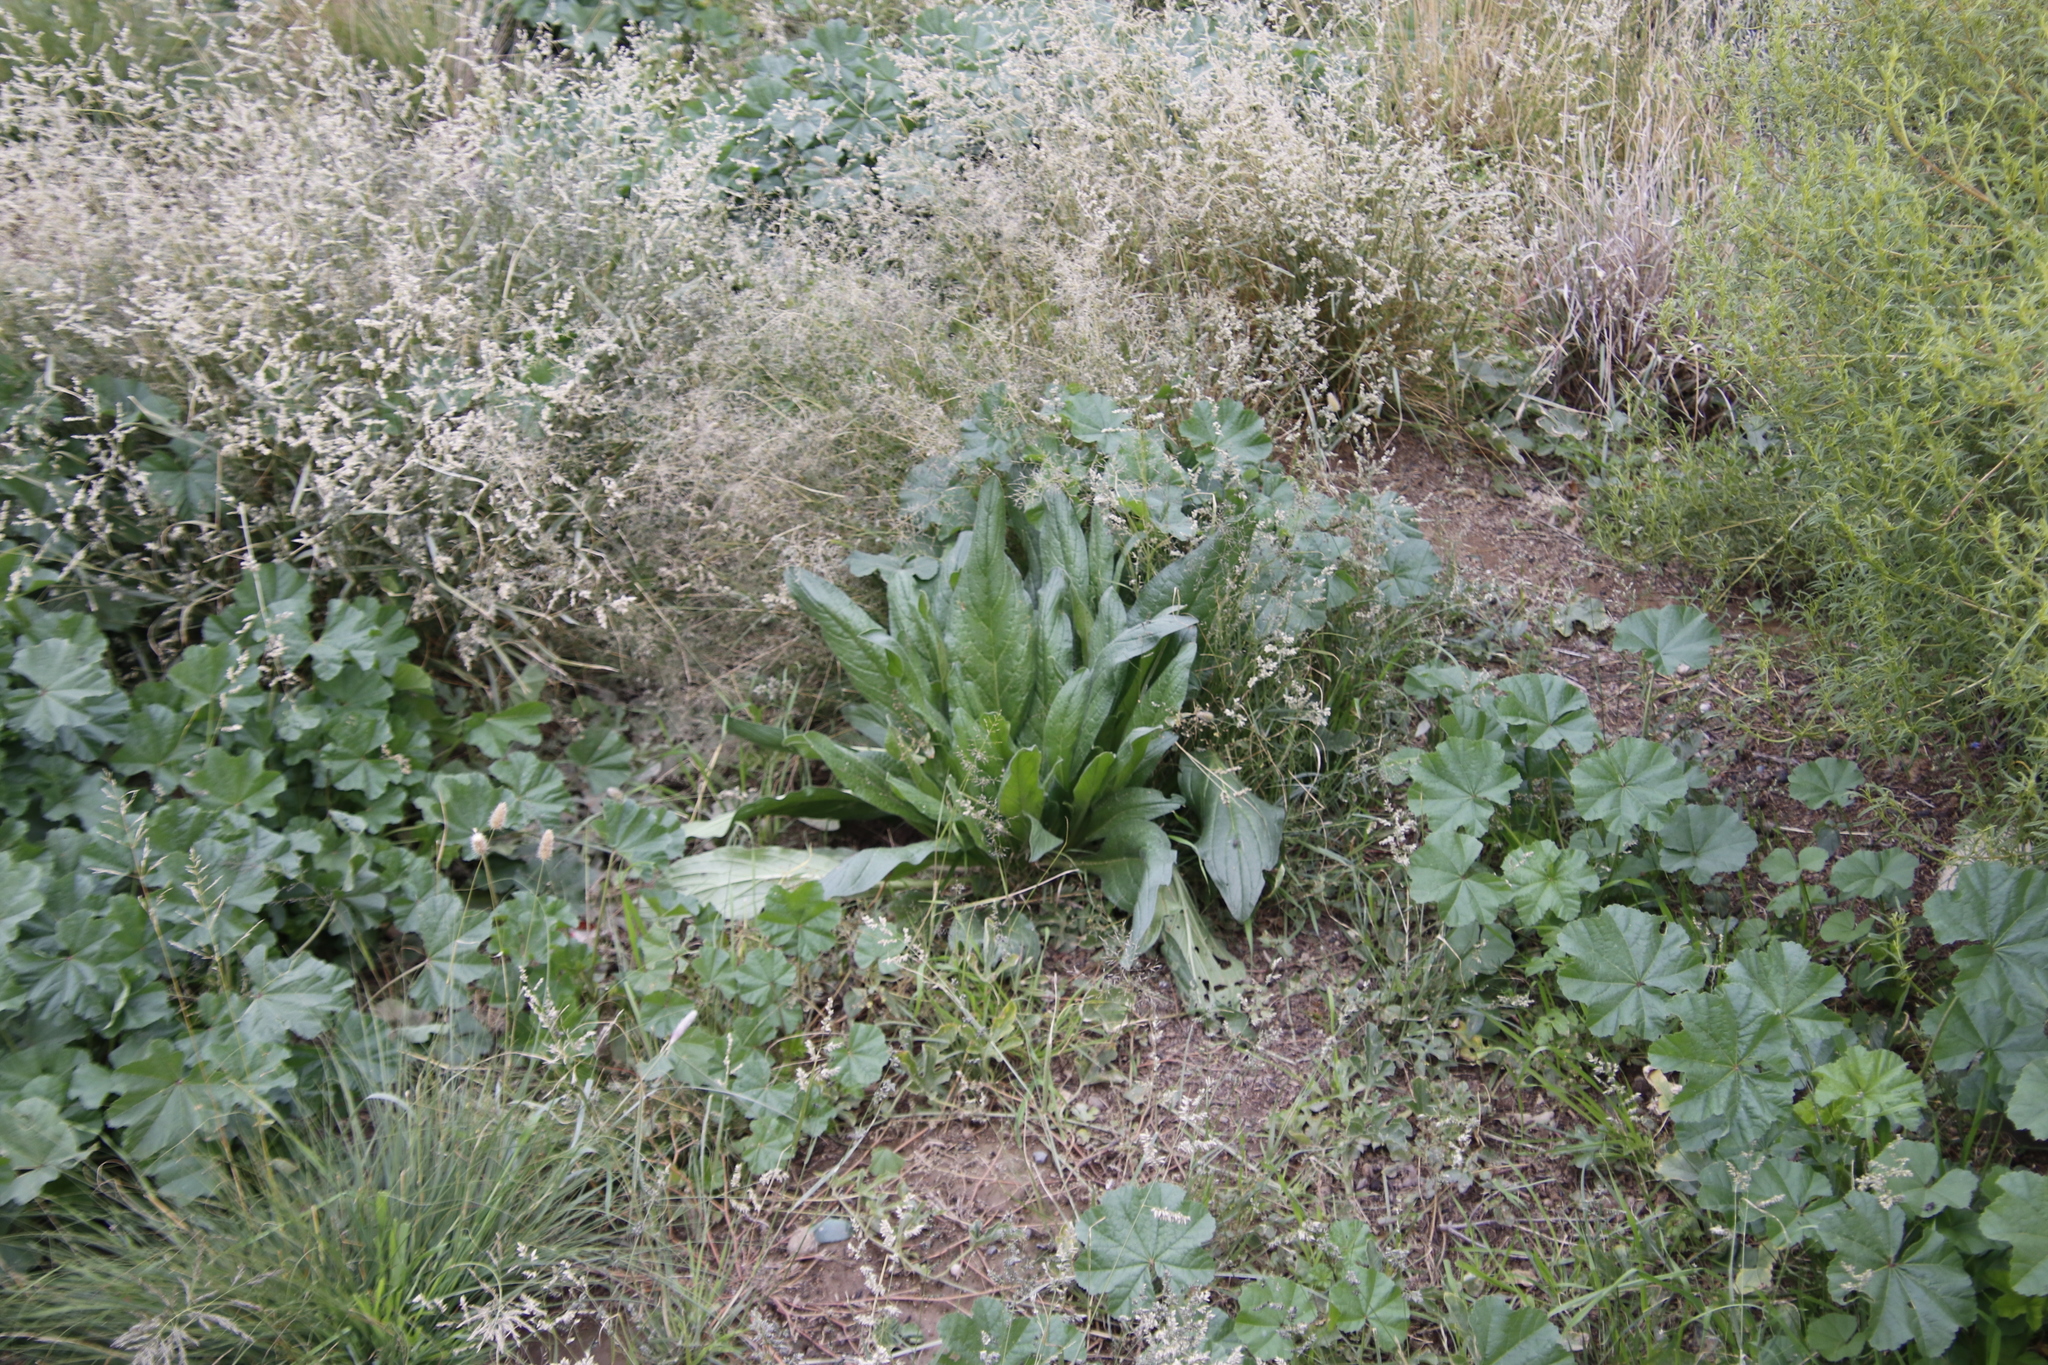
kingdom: Plantae
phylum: Tracheophyta
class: Magnoliopsida
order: Boraginales
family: Boraginaceae
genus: Echium
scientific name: Echium plantagineum
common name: Purple viper's-bugloss
